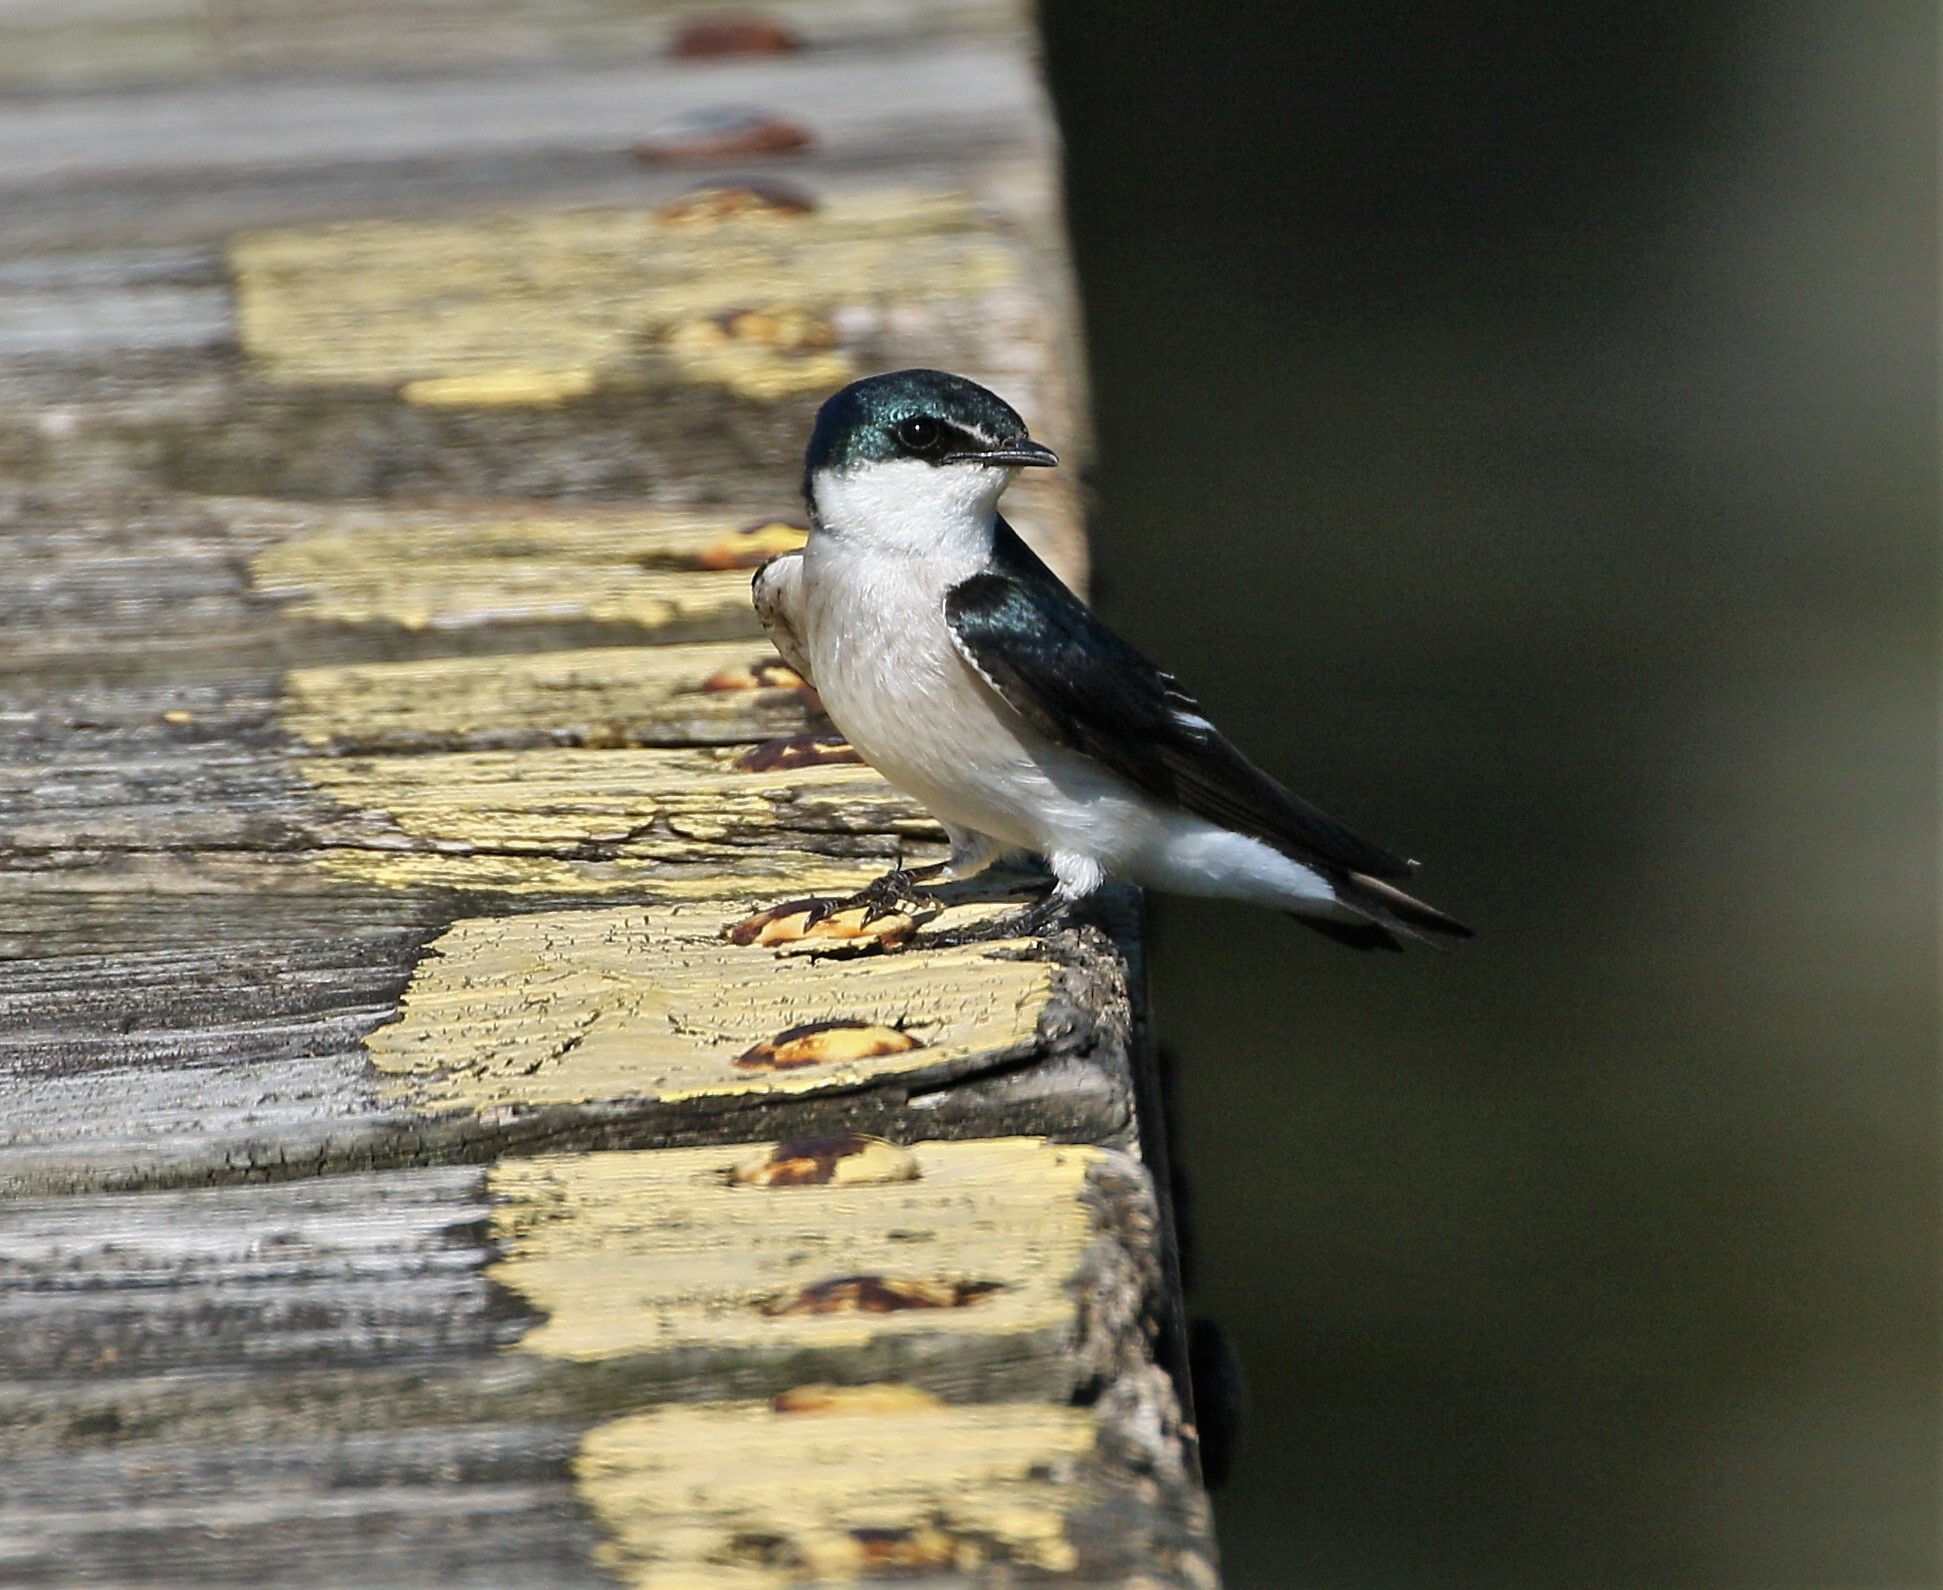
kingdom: Animalia
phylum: Chordata
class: Aves
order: Passeriformes
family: Hirundinidae
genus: Tachycineta
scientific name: Tachycineta albilinea
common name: Mangrove swallow
